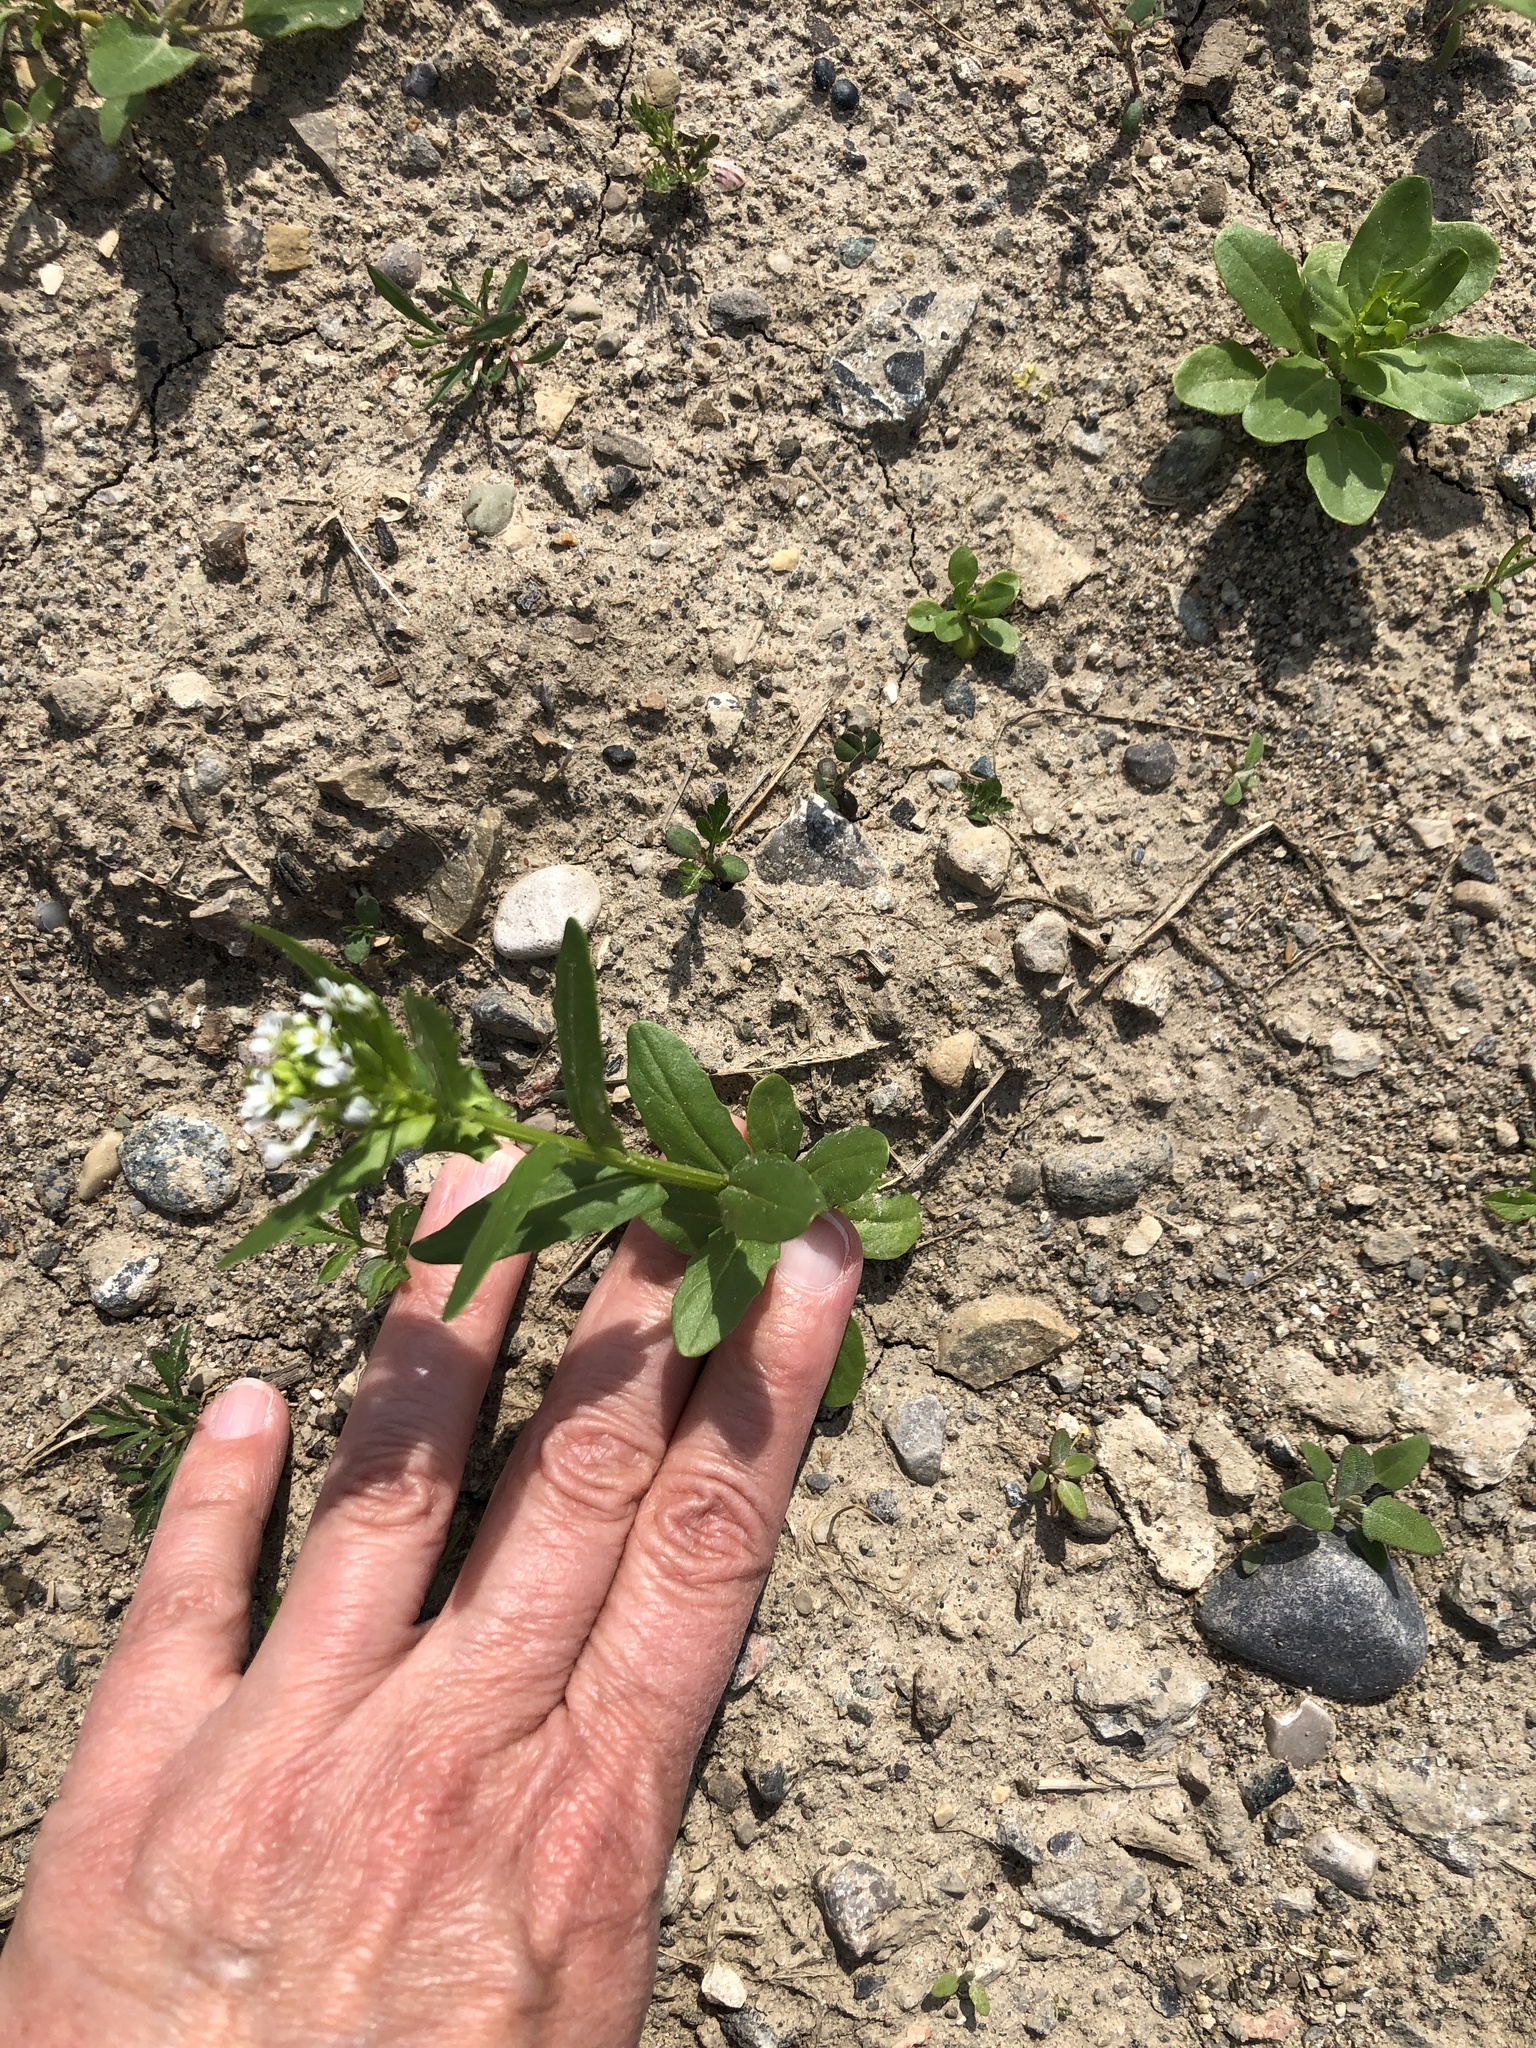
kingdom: Plantae
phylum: Tracheophyta
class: Magnoliopsida
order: Brassicales
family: Brassicaceae
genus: Thlaspi
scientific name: Thlaspi arvense
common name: Field pennycress
